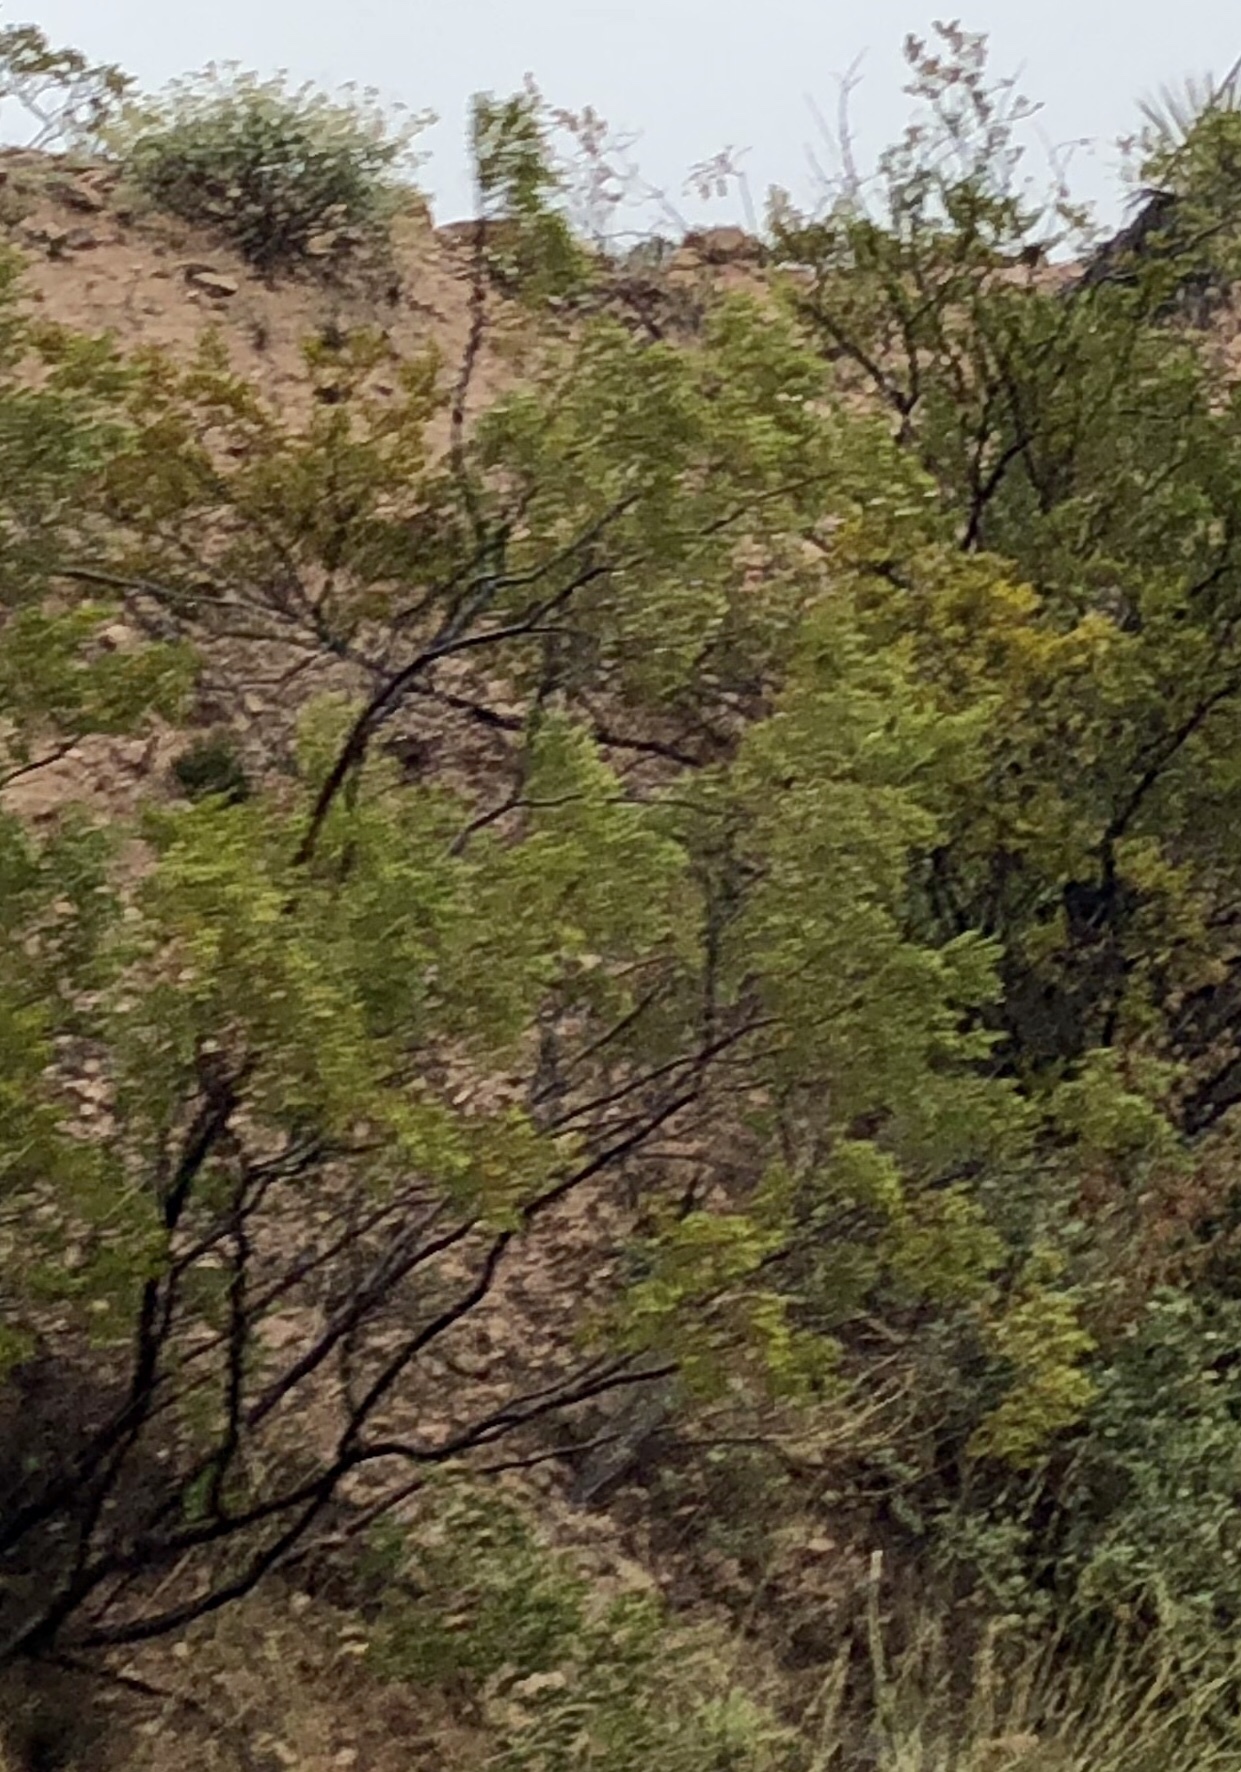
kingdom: Plantae
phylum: Tracheophyta
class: Magnoliopsida
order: Zygophyllales
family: Zygophyllaceae
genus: Larrea
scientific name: Larrea tridentata
